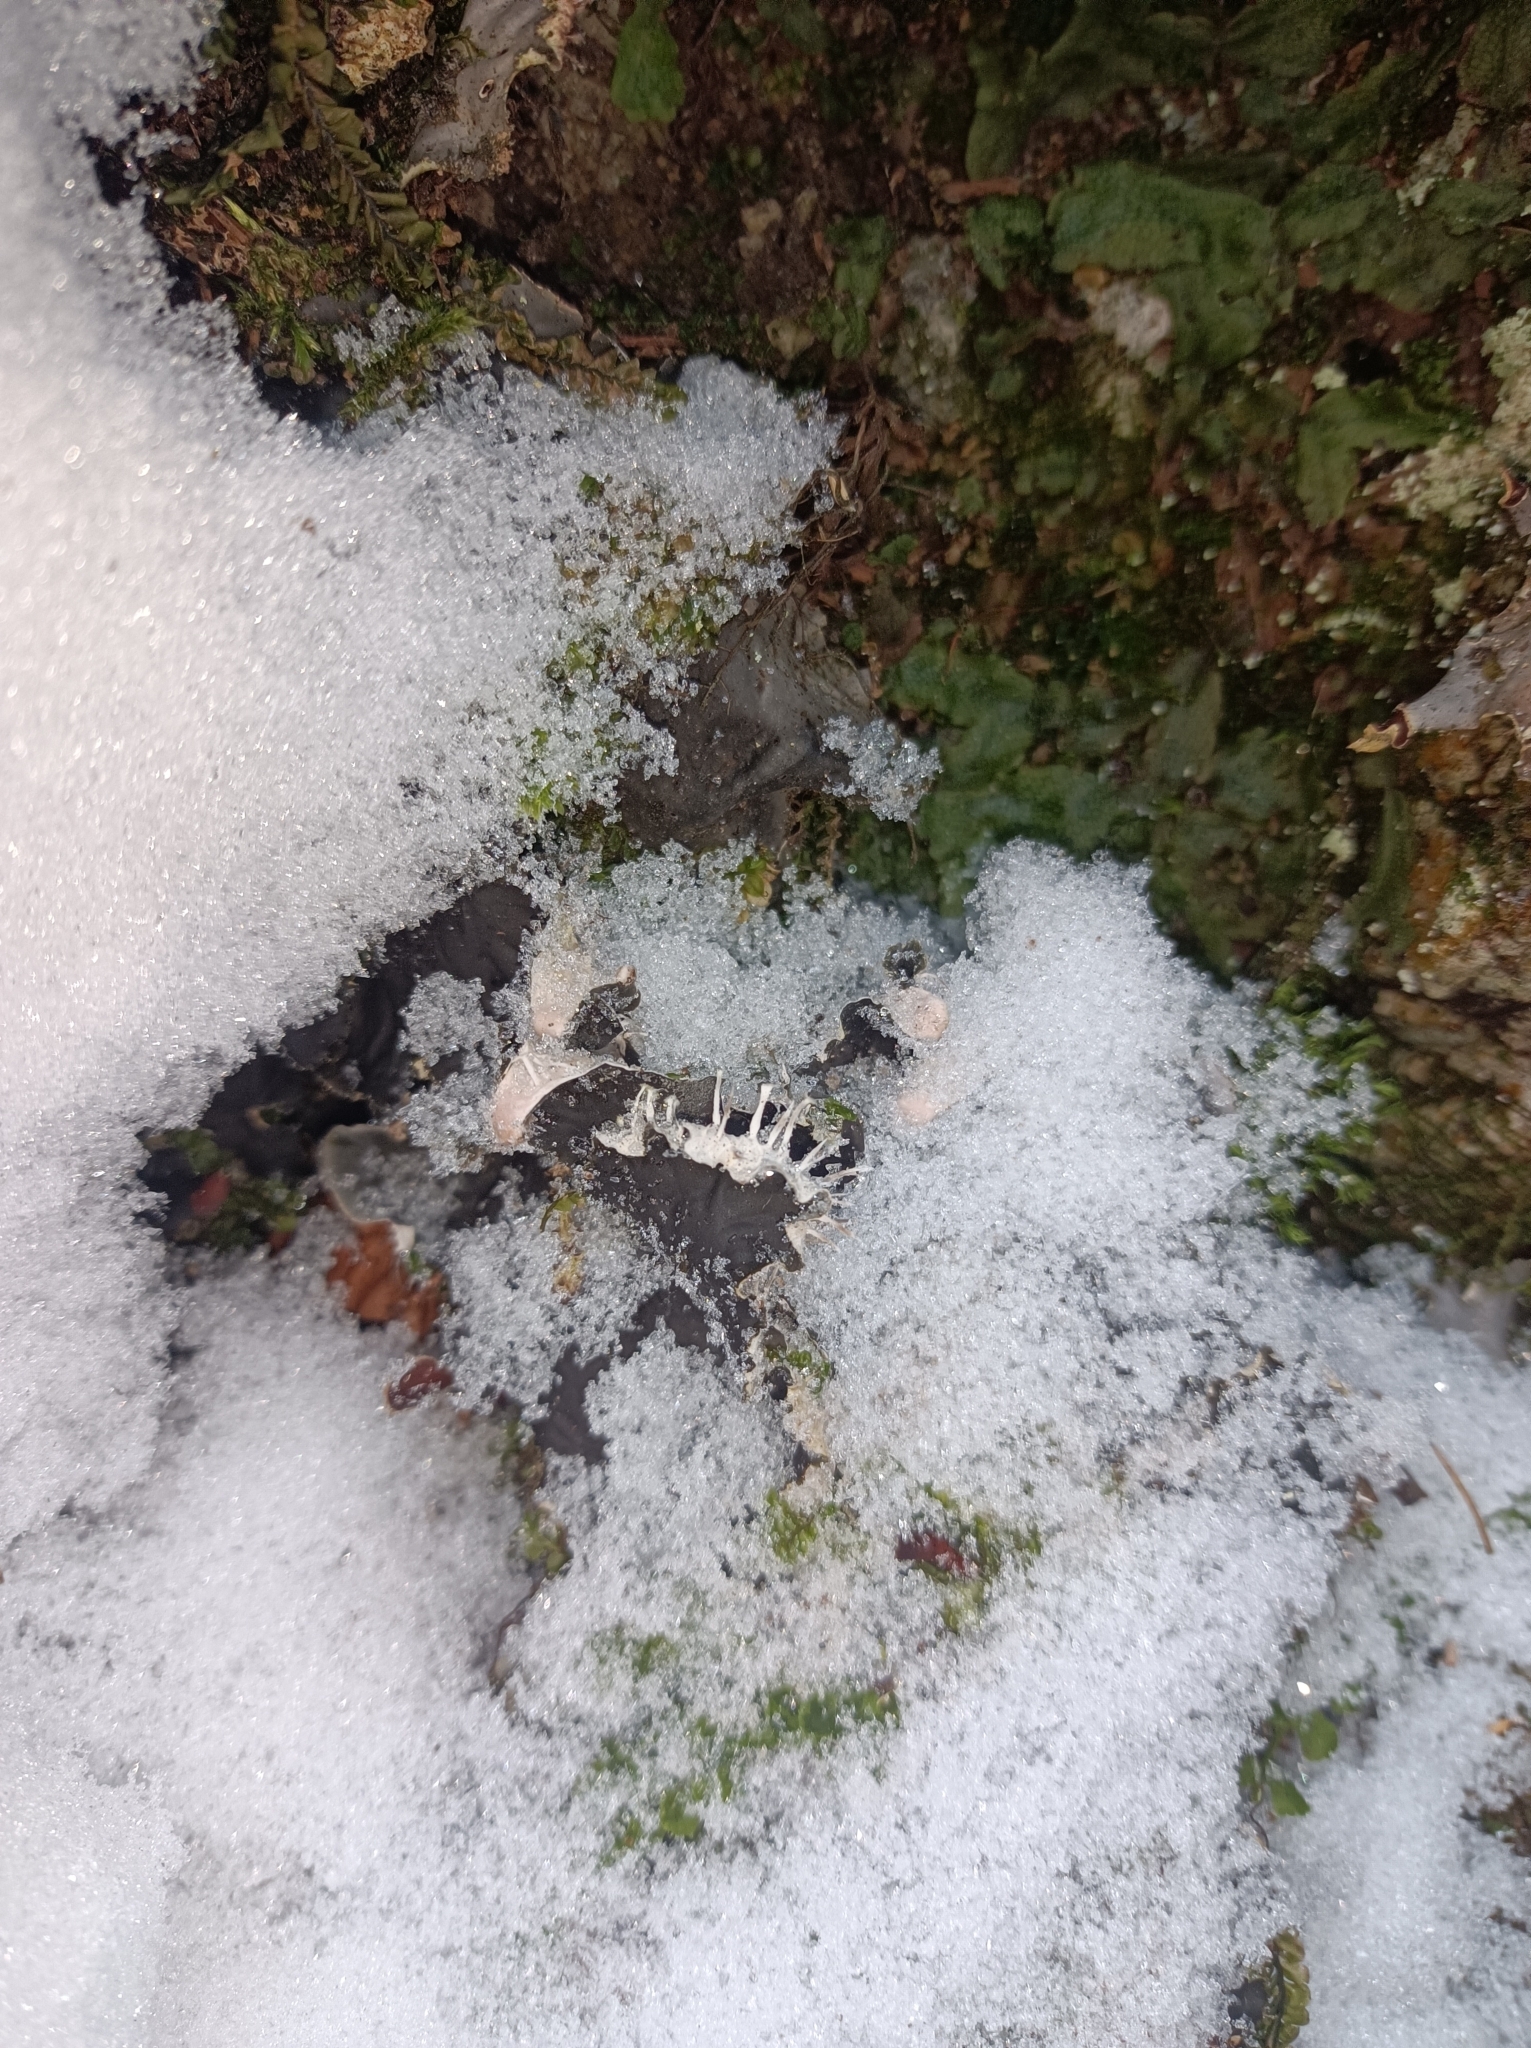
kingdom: Fungi
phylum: Ascomycota
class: Lecanoromycetes
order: Peltigerales
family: Peltigeraceae
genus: Peltigera
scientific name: Peltigera praetextata
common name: Scaly dog-lichen
